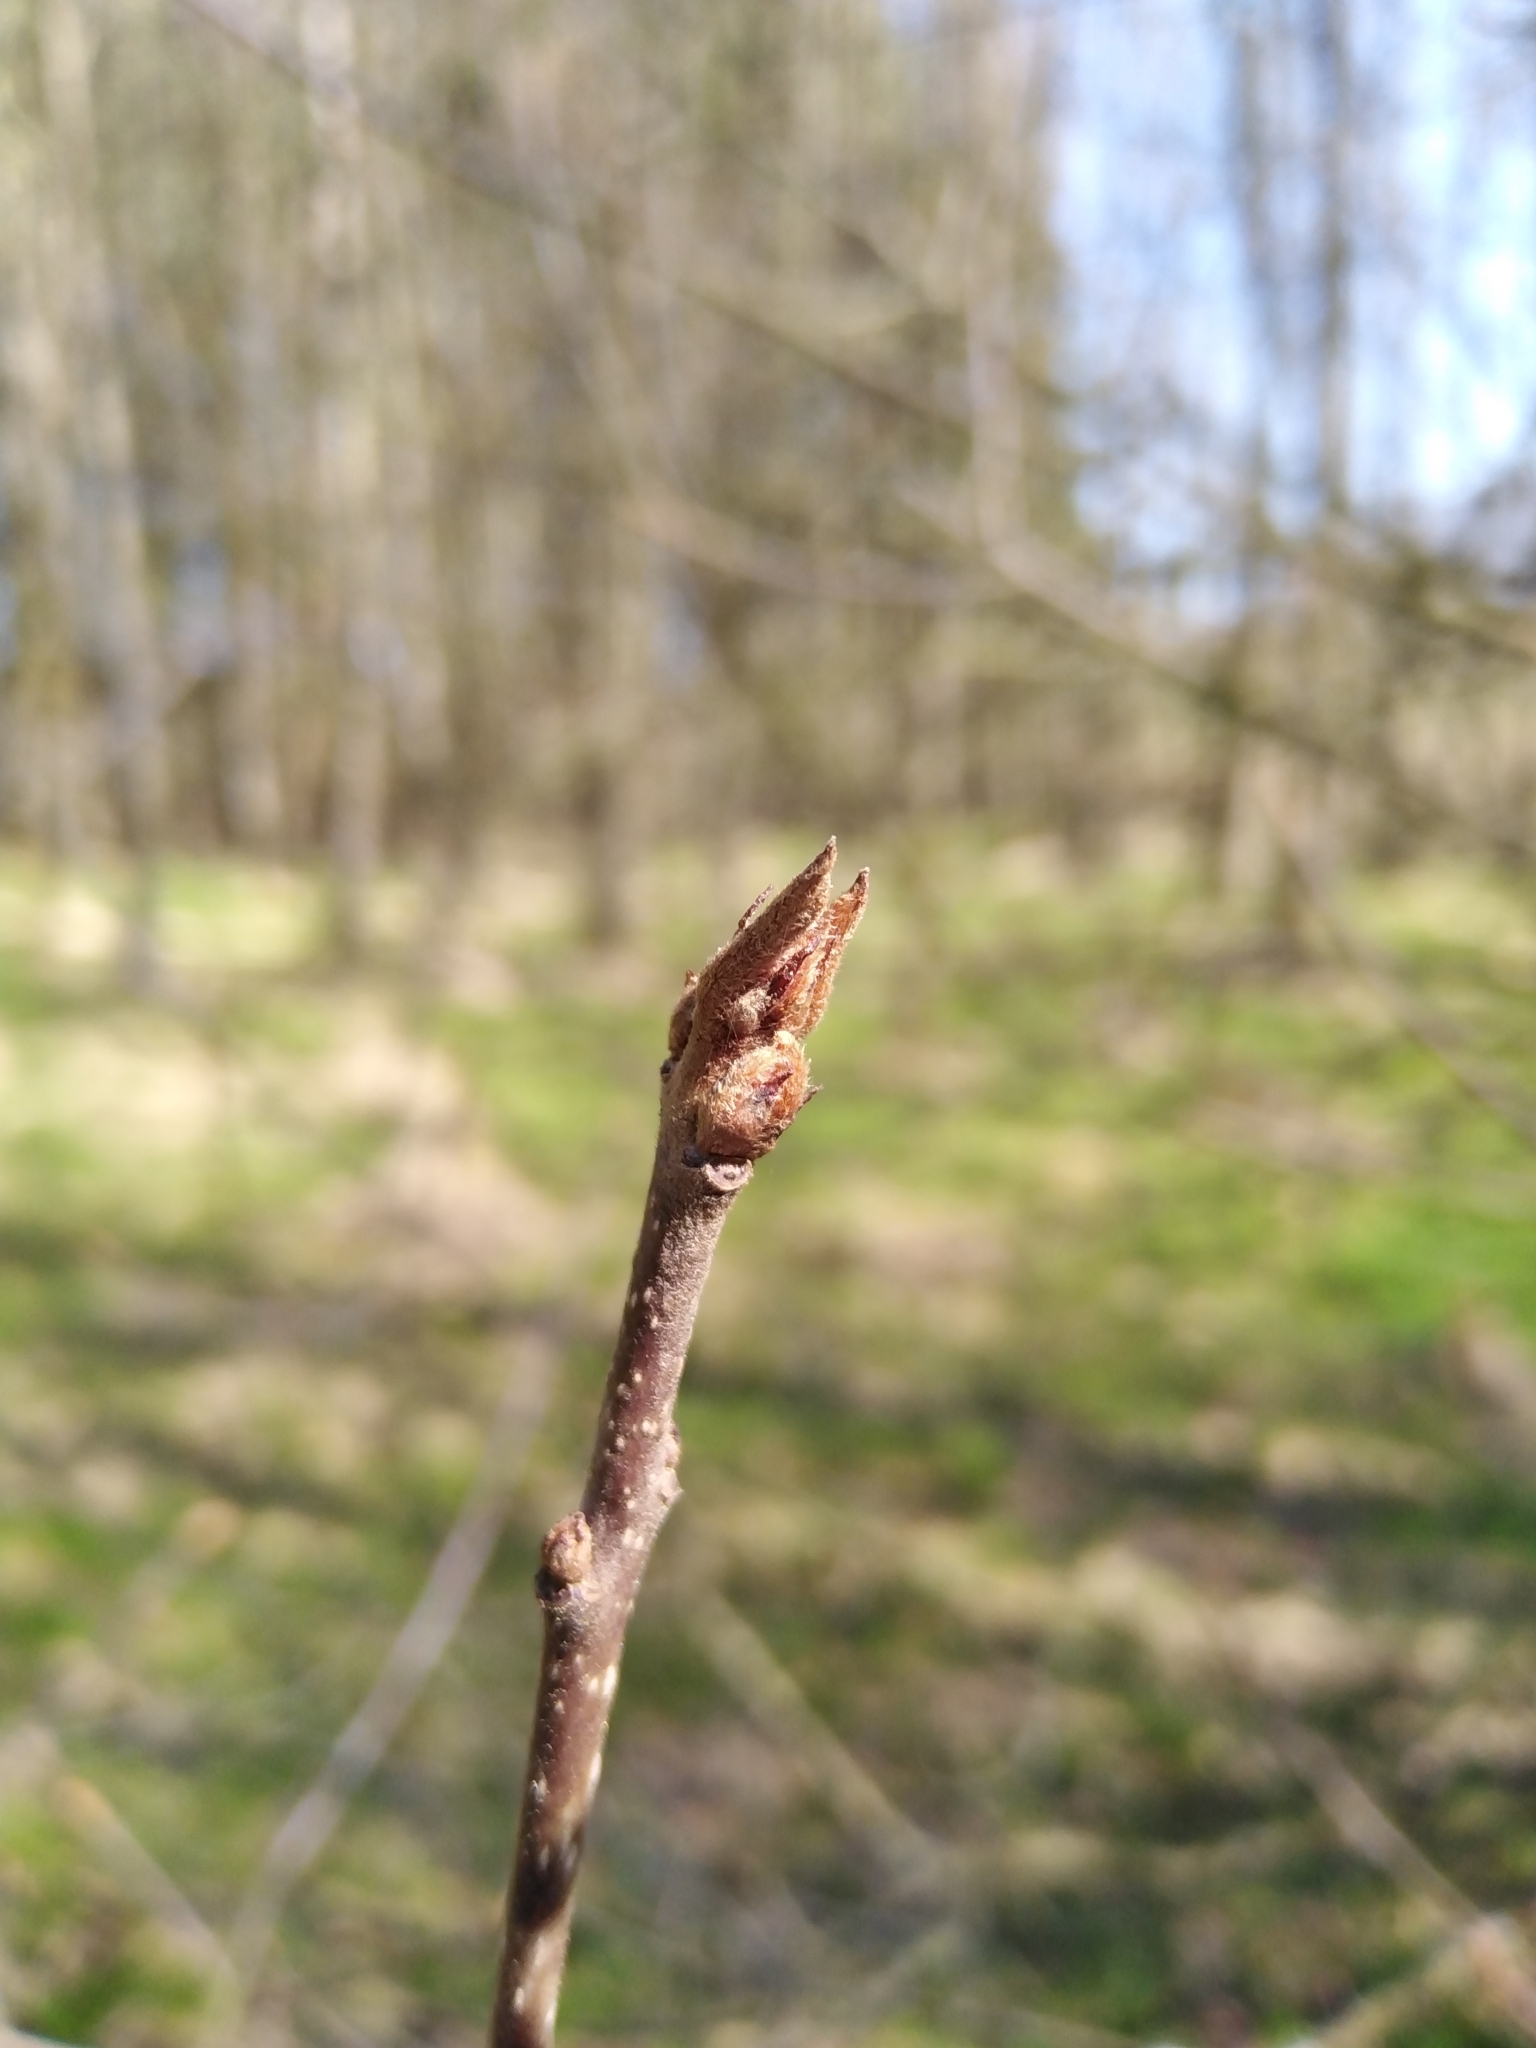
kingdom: Plantae
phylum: Tracheophyta
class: Magnoliopsida
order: Rosales
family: Rhamnaceae
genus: Frangula
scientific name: Frangula alnus
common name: Alder buckthorn
